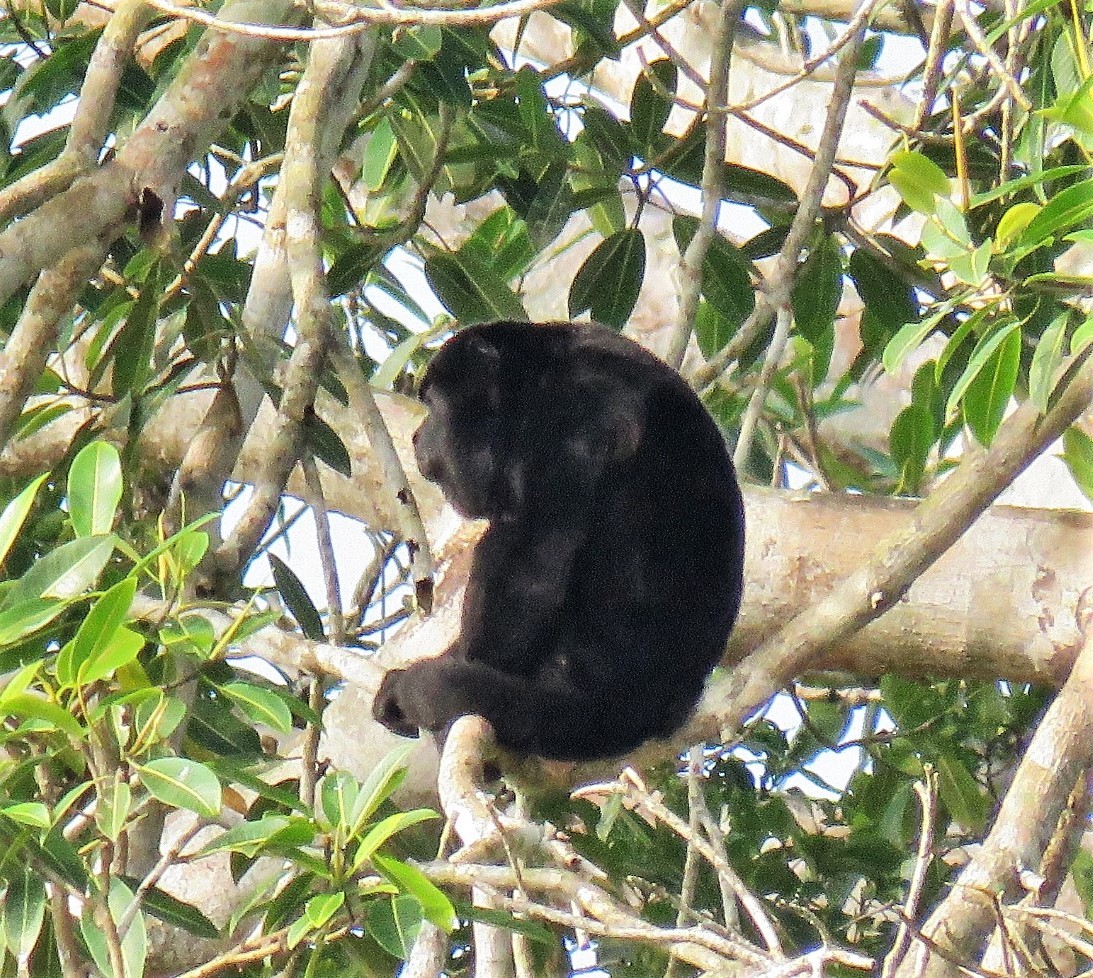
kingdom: Animalia
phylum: Chordata
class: Mammalia
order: Primates
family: Atelidae
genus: Alouatta
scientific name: Alouatta palliata
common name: Mantled howler
